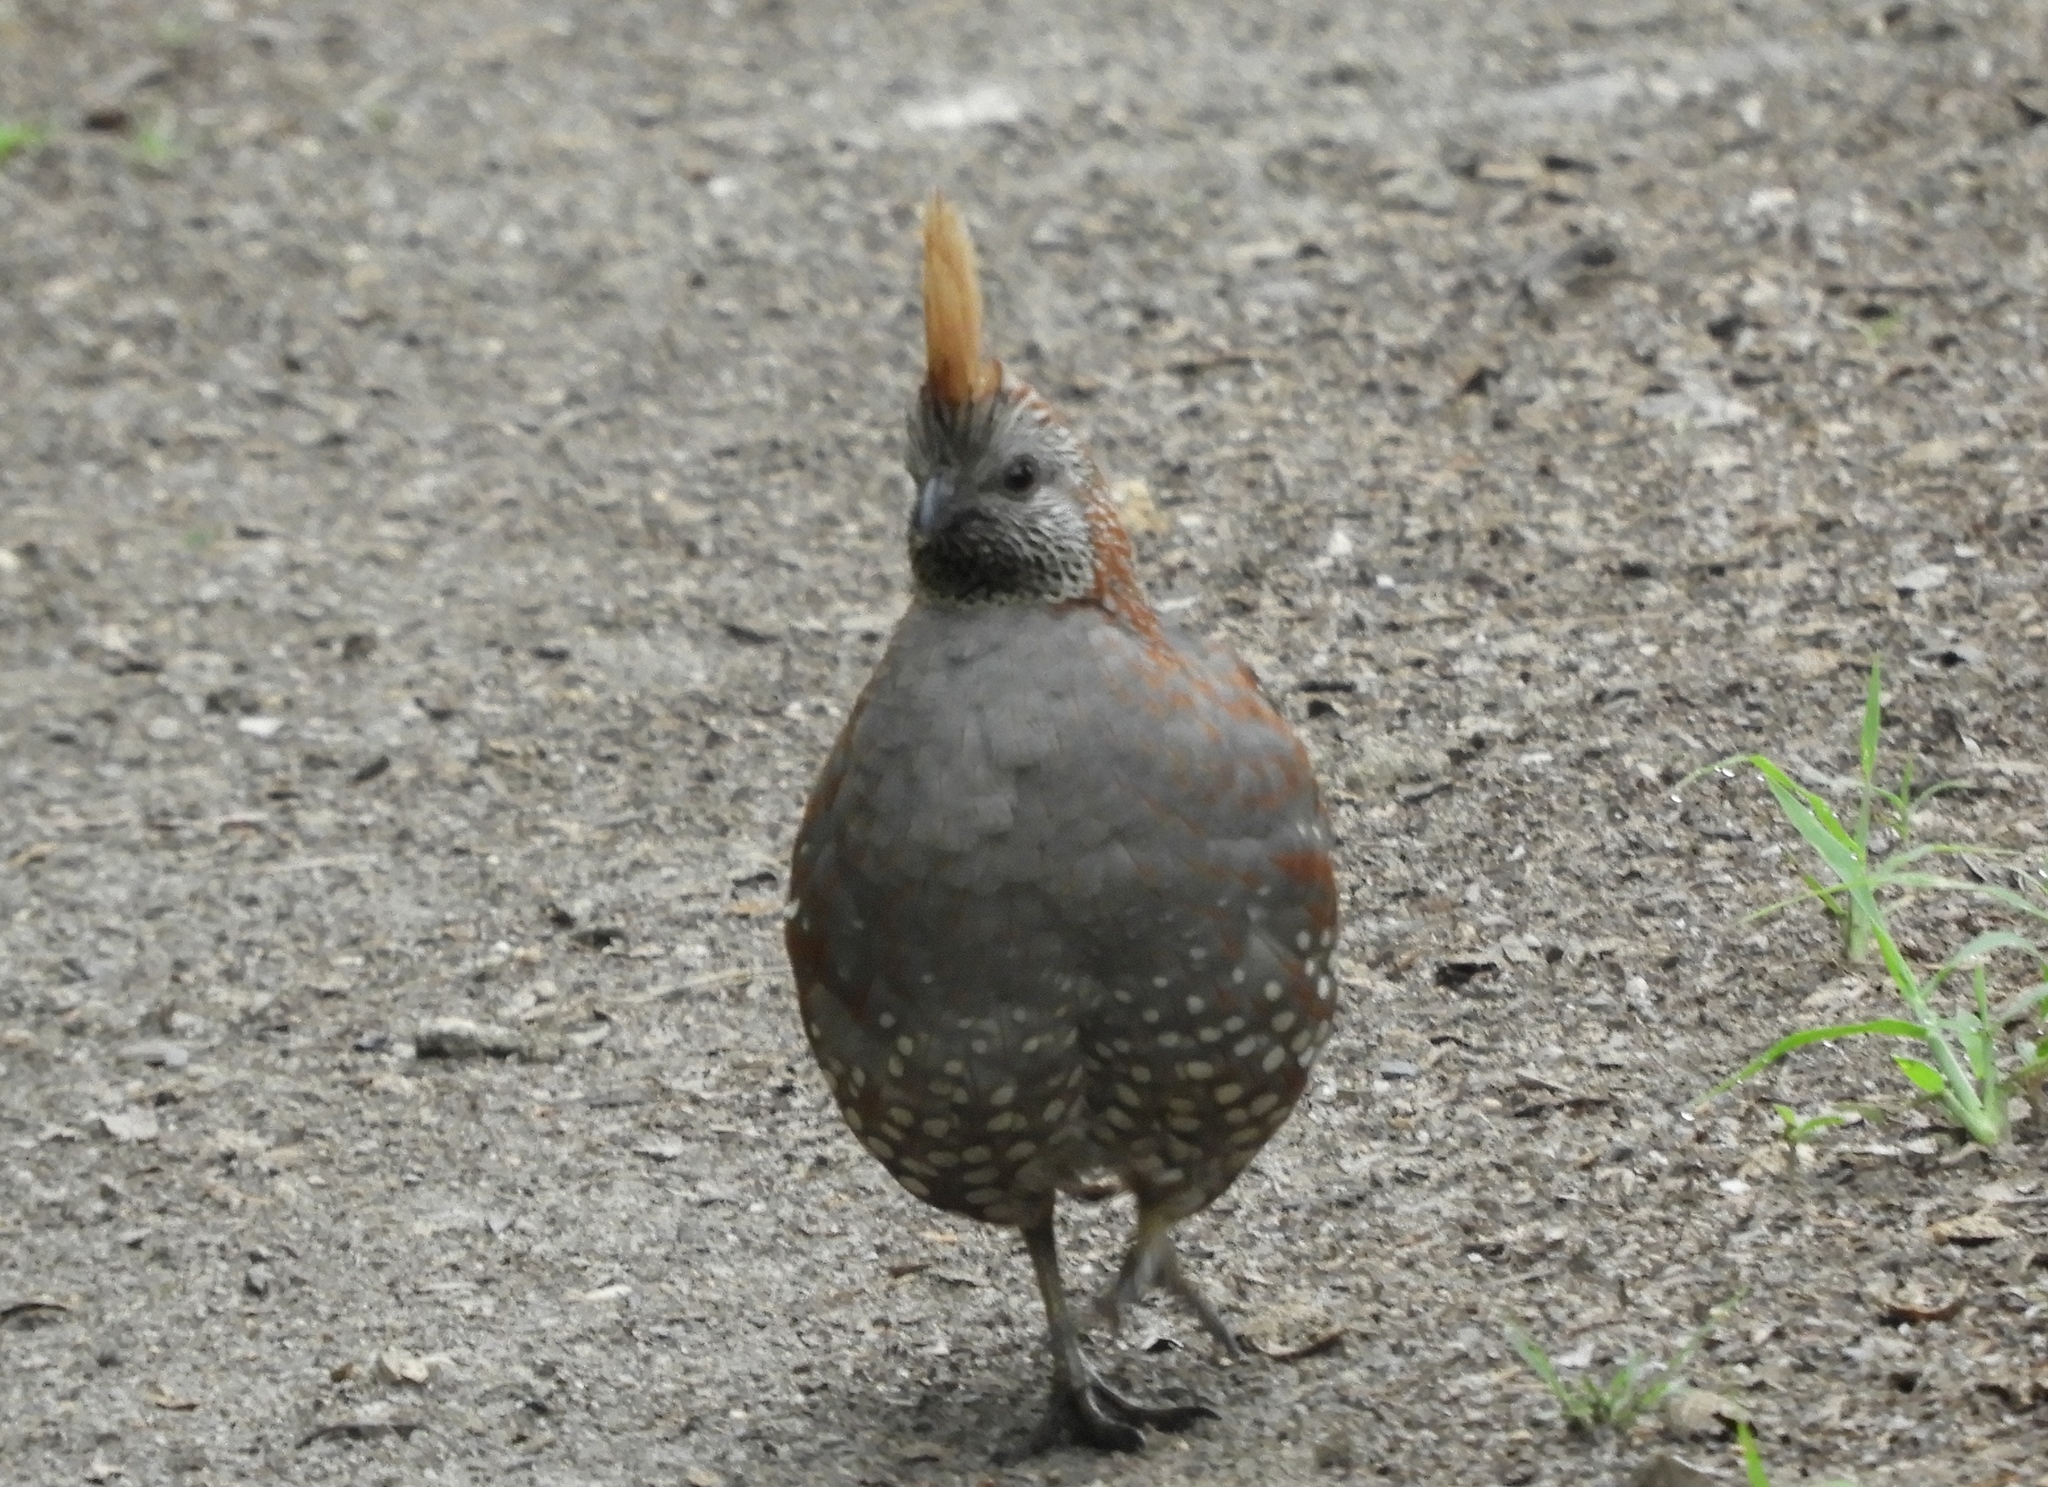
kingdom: Animalia
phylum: Chordata
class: Aves
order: Galliformes
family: Odontophoridae
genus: Callipepla
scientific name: Callipepla douglasii
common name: Elegant quail
